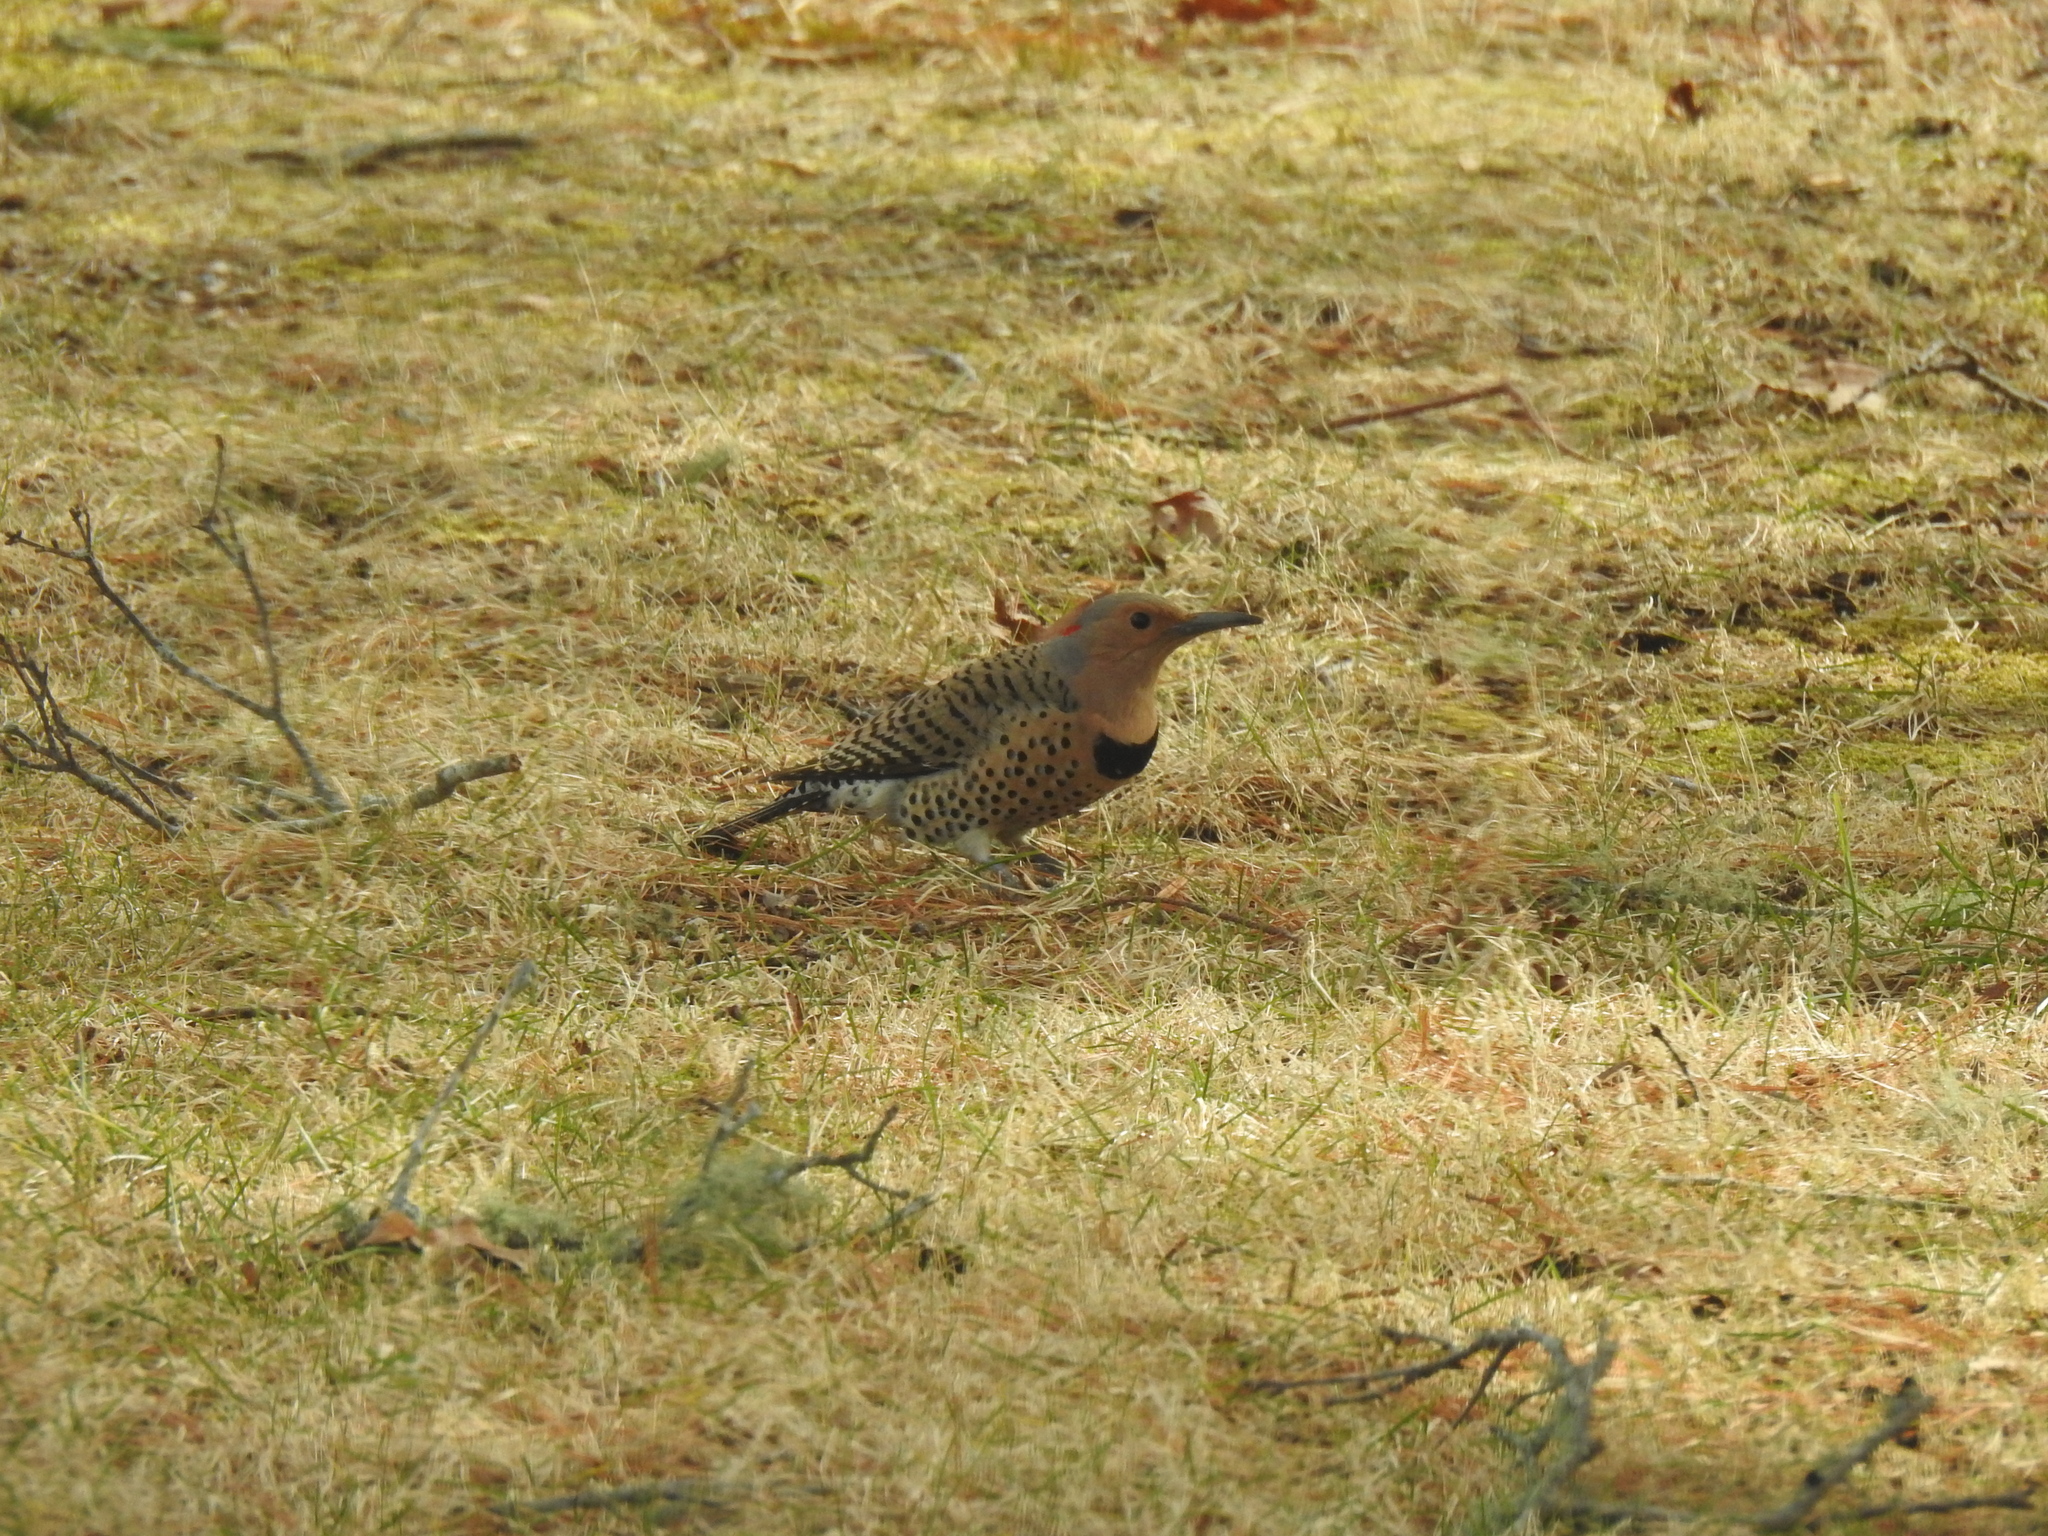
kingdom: Animalia
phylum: Chordata
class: Aves
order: Piciformes
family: Picidae
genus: Colaptes
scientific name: Colaptes auratus
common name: Northern flicker
